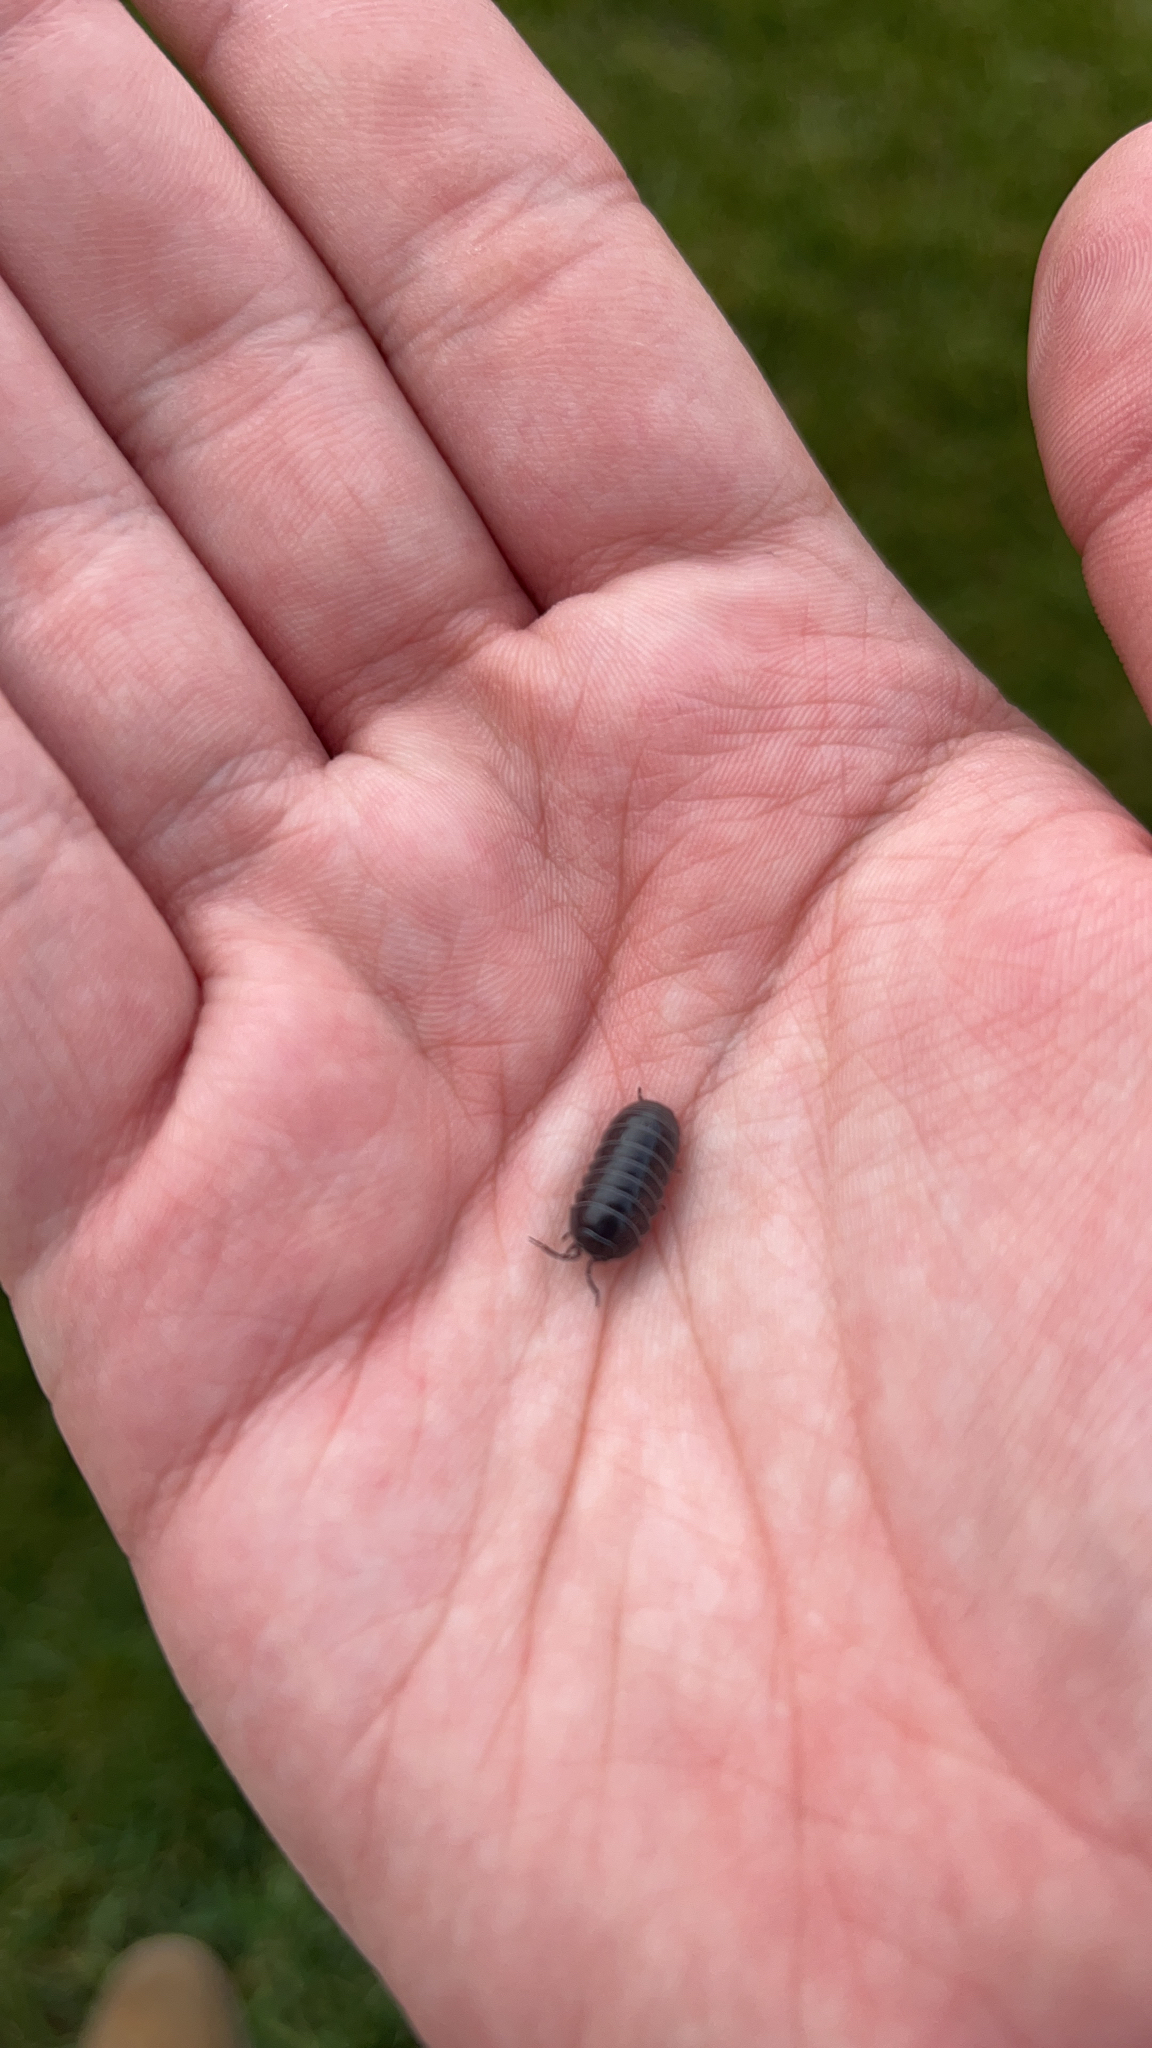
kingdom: Animalia
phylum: Arthropoda
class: Malacostraca
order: Isopoda
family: Armadillidiidae
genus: Armadillidium
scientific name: Armadillidium vulgare
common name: Common pill woodlouse
